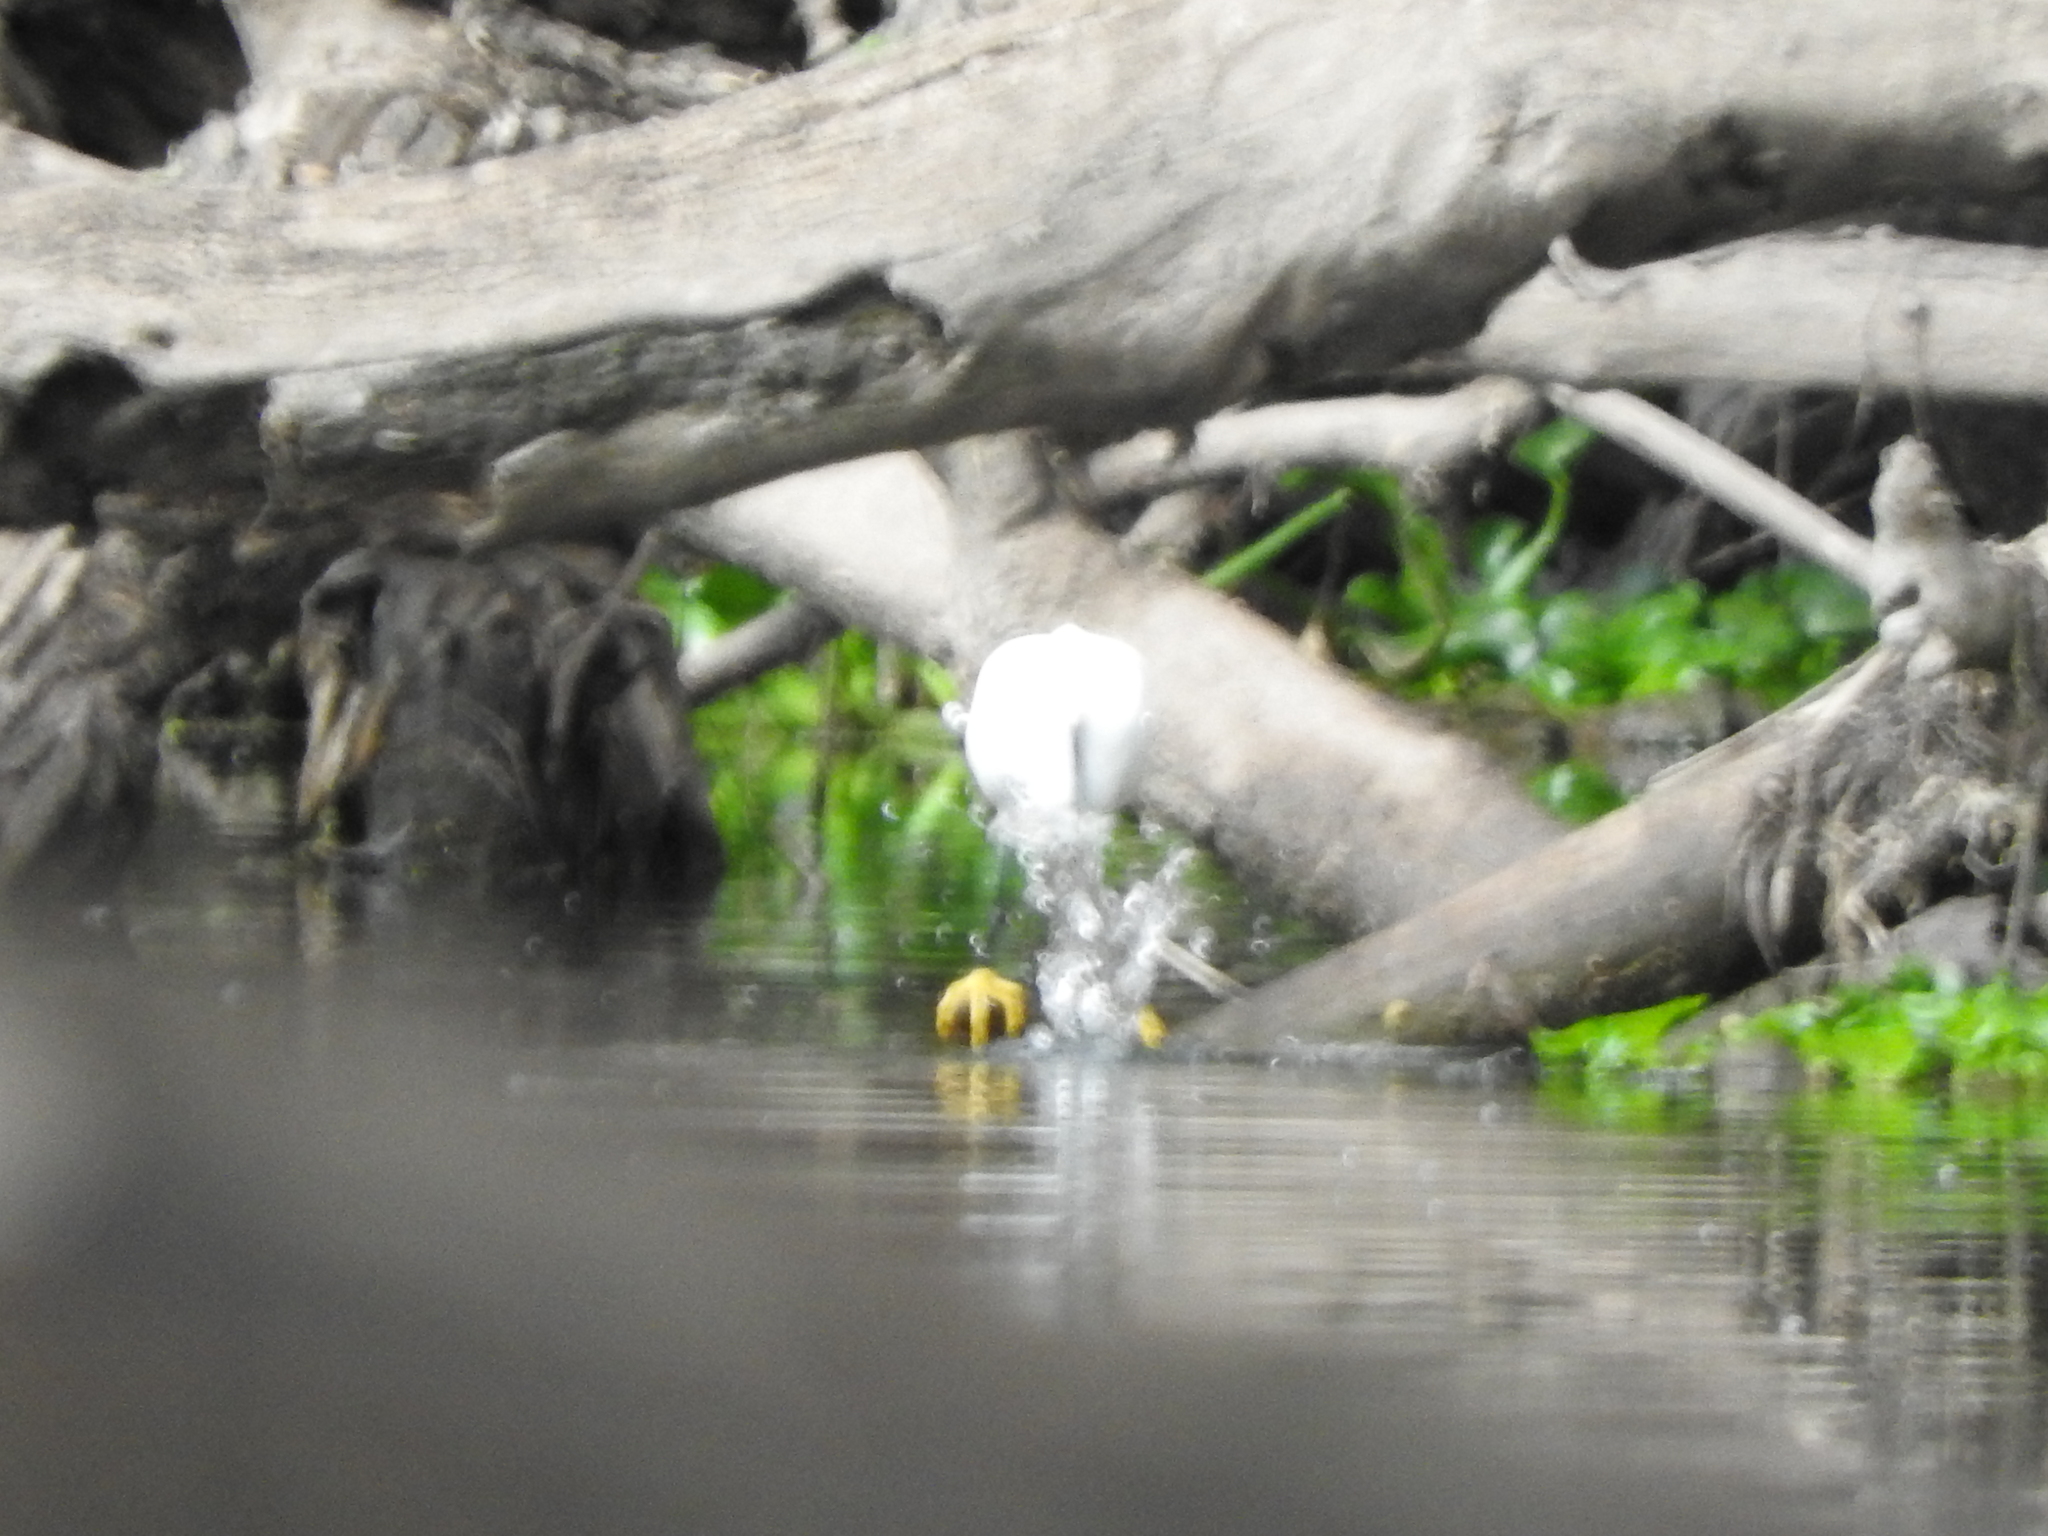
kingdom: Animalia
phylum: Chordata
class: Aves
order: Pelecaniformes
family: Ardeidae
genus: Egretta
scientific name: Egretta thula
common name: Snowy egret
